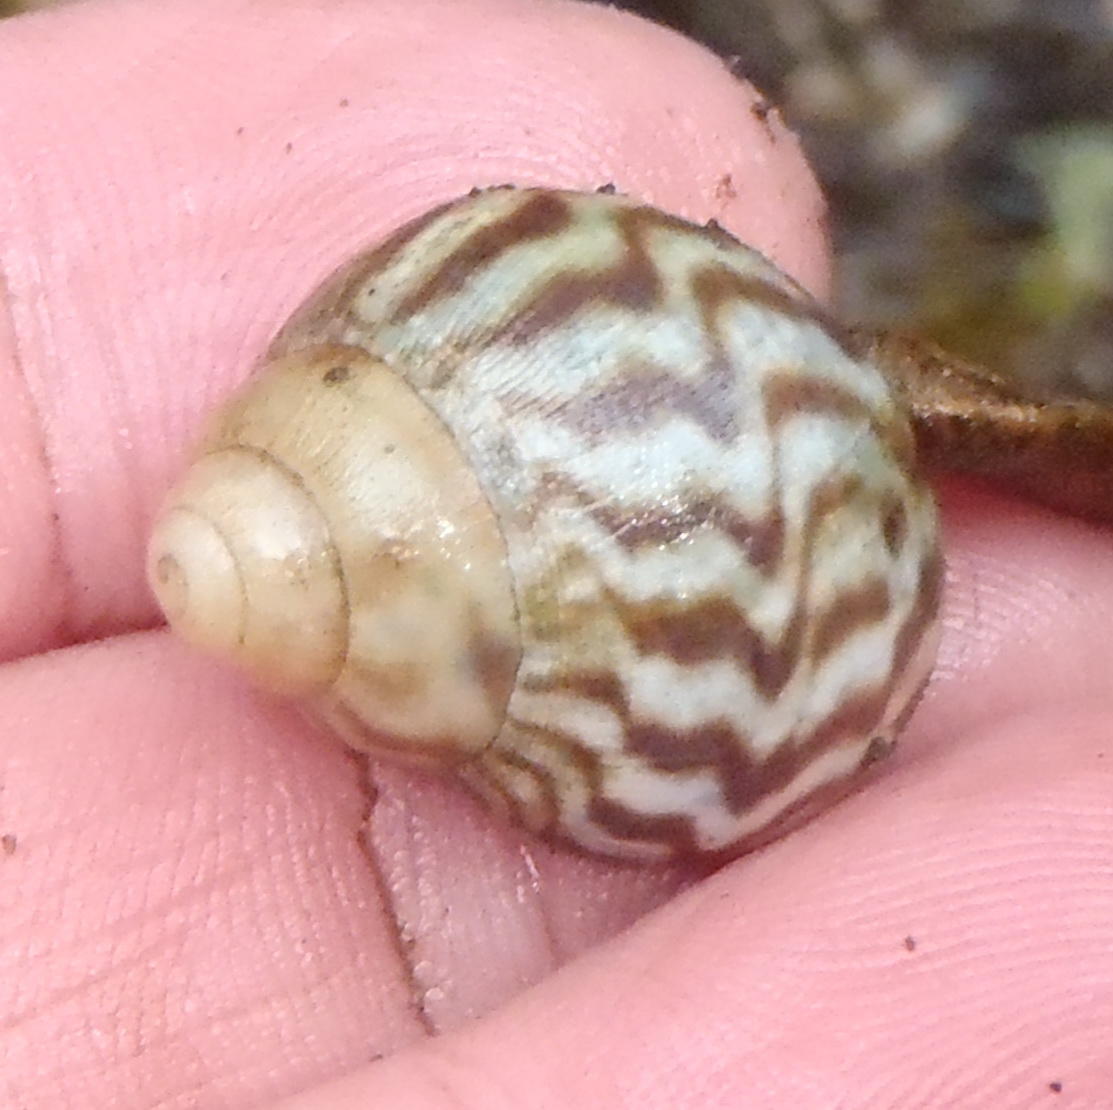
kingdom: Animalia
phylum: Mollusca
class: Gastropoda
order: Stylommatophora
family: Achatinidae
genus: Cochlitoma
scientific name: Cochlitoma zebra
